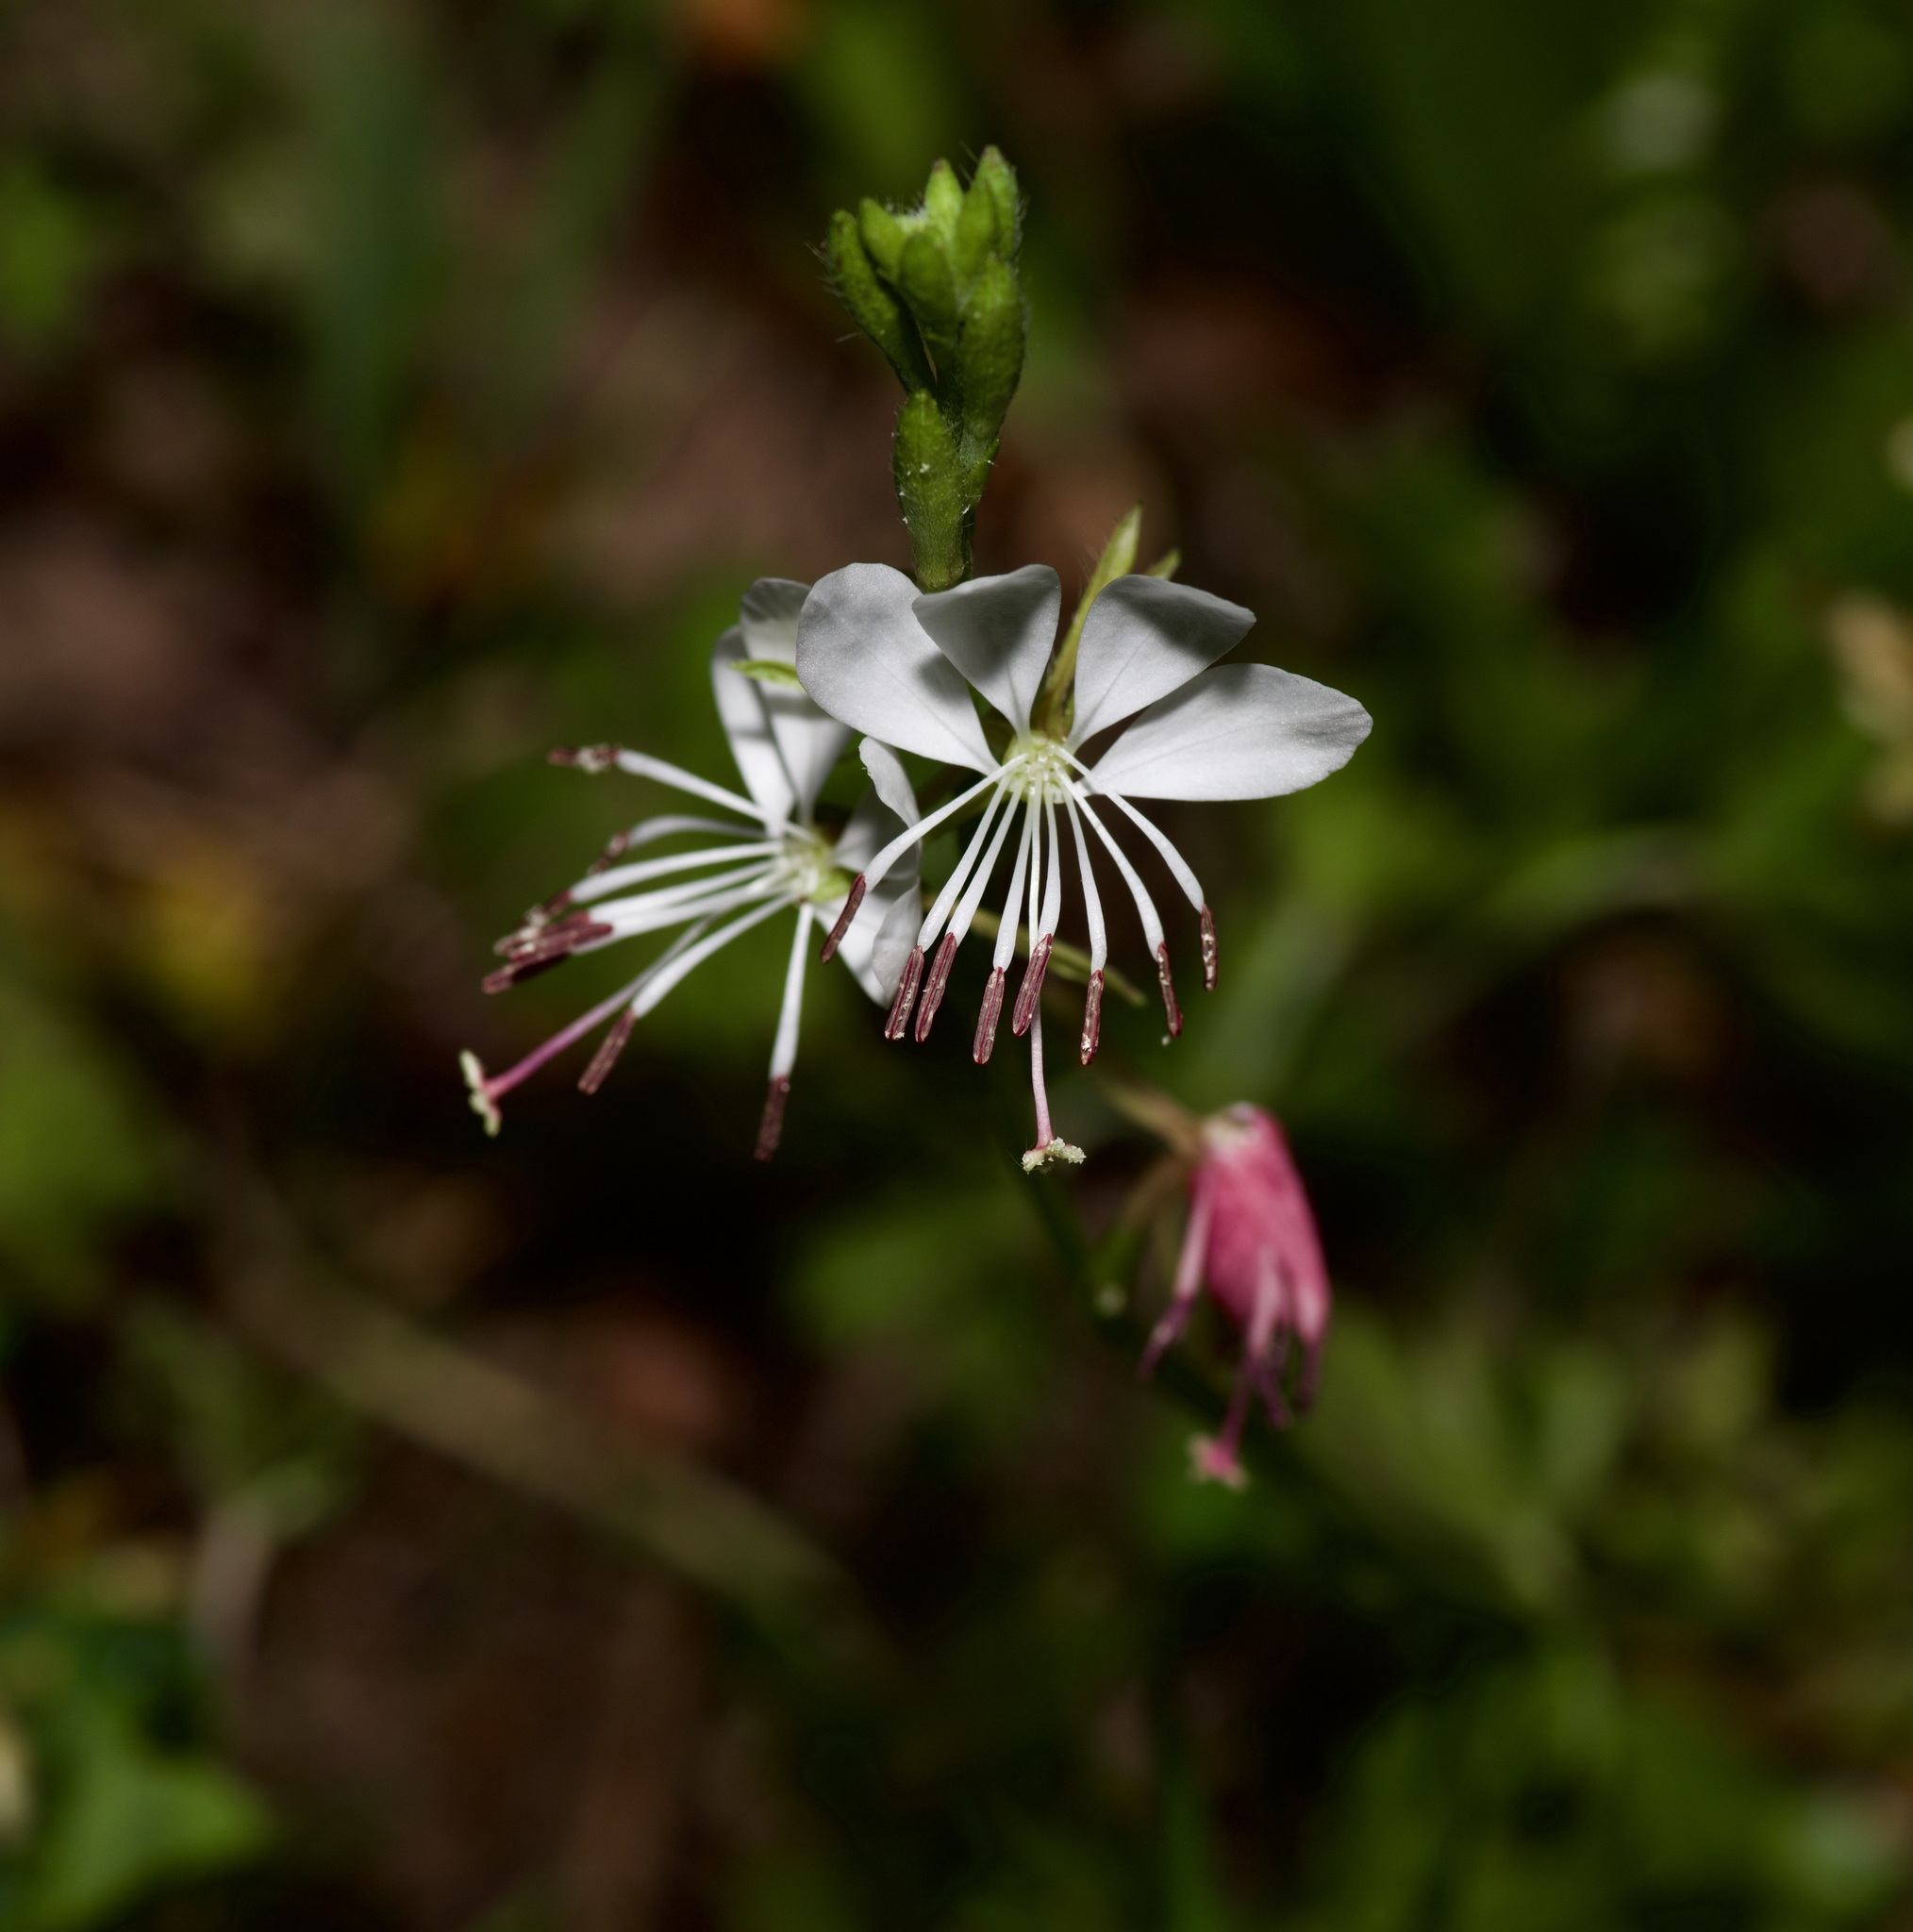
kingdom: Plantae
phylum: Tracheophyta
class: Magnoliopsida
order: Myrtales
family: Onagraceae
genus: Oenothera
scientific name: Oenothera suffulta
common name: Kisses
